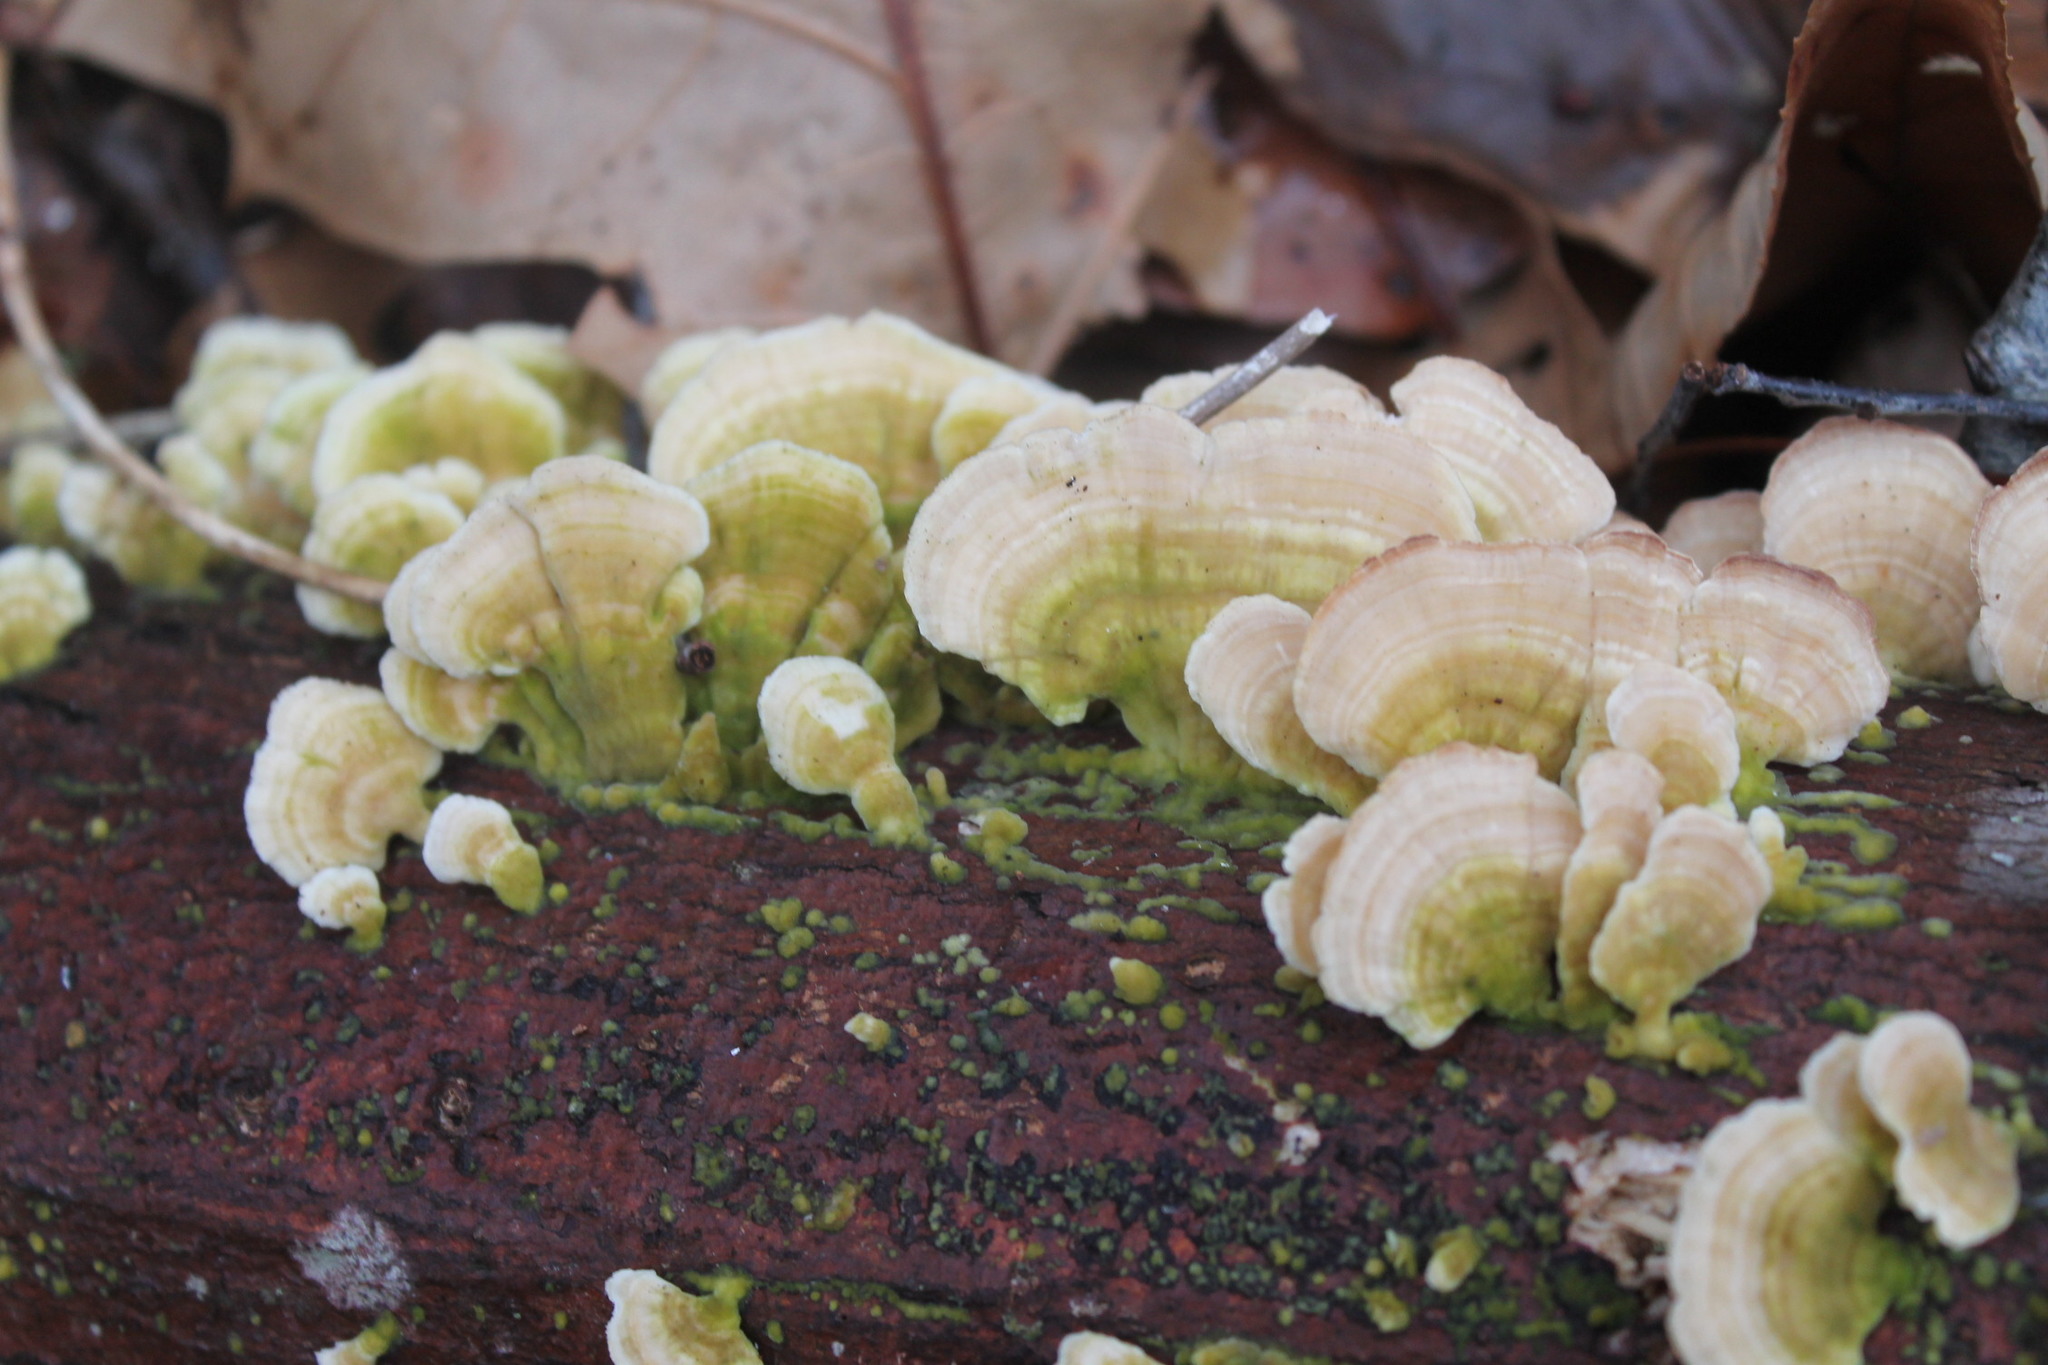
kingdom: Fungi
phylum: Basidiomycota
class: Agaricomycetes
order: Hymenochaetales
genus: Trichaptum
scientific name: Trichaptum biforme
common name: Violet-toothed polypore
